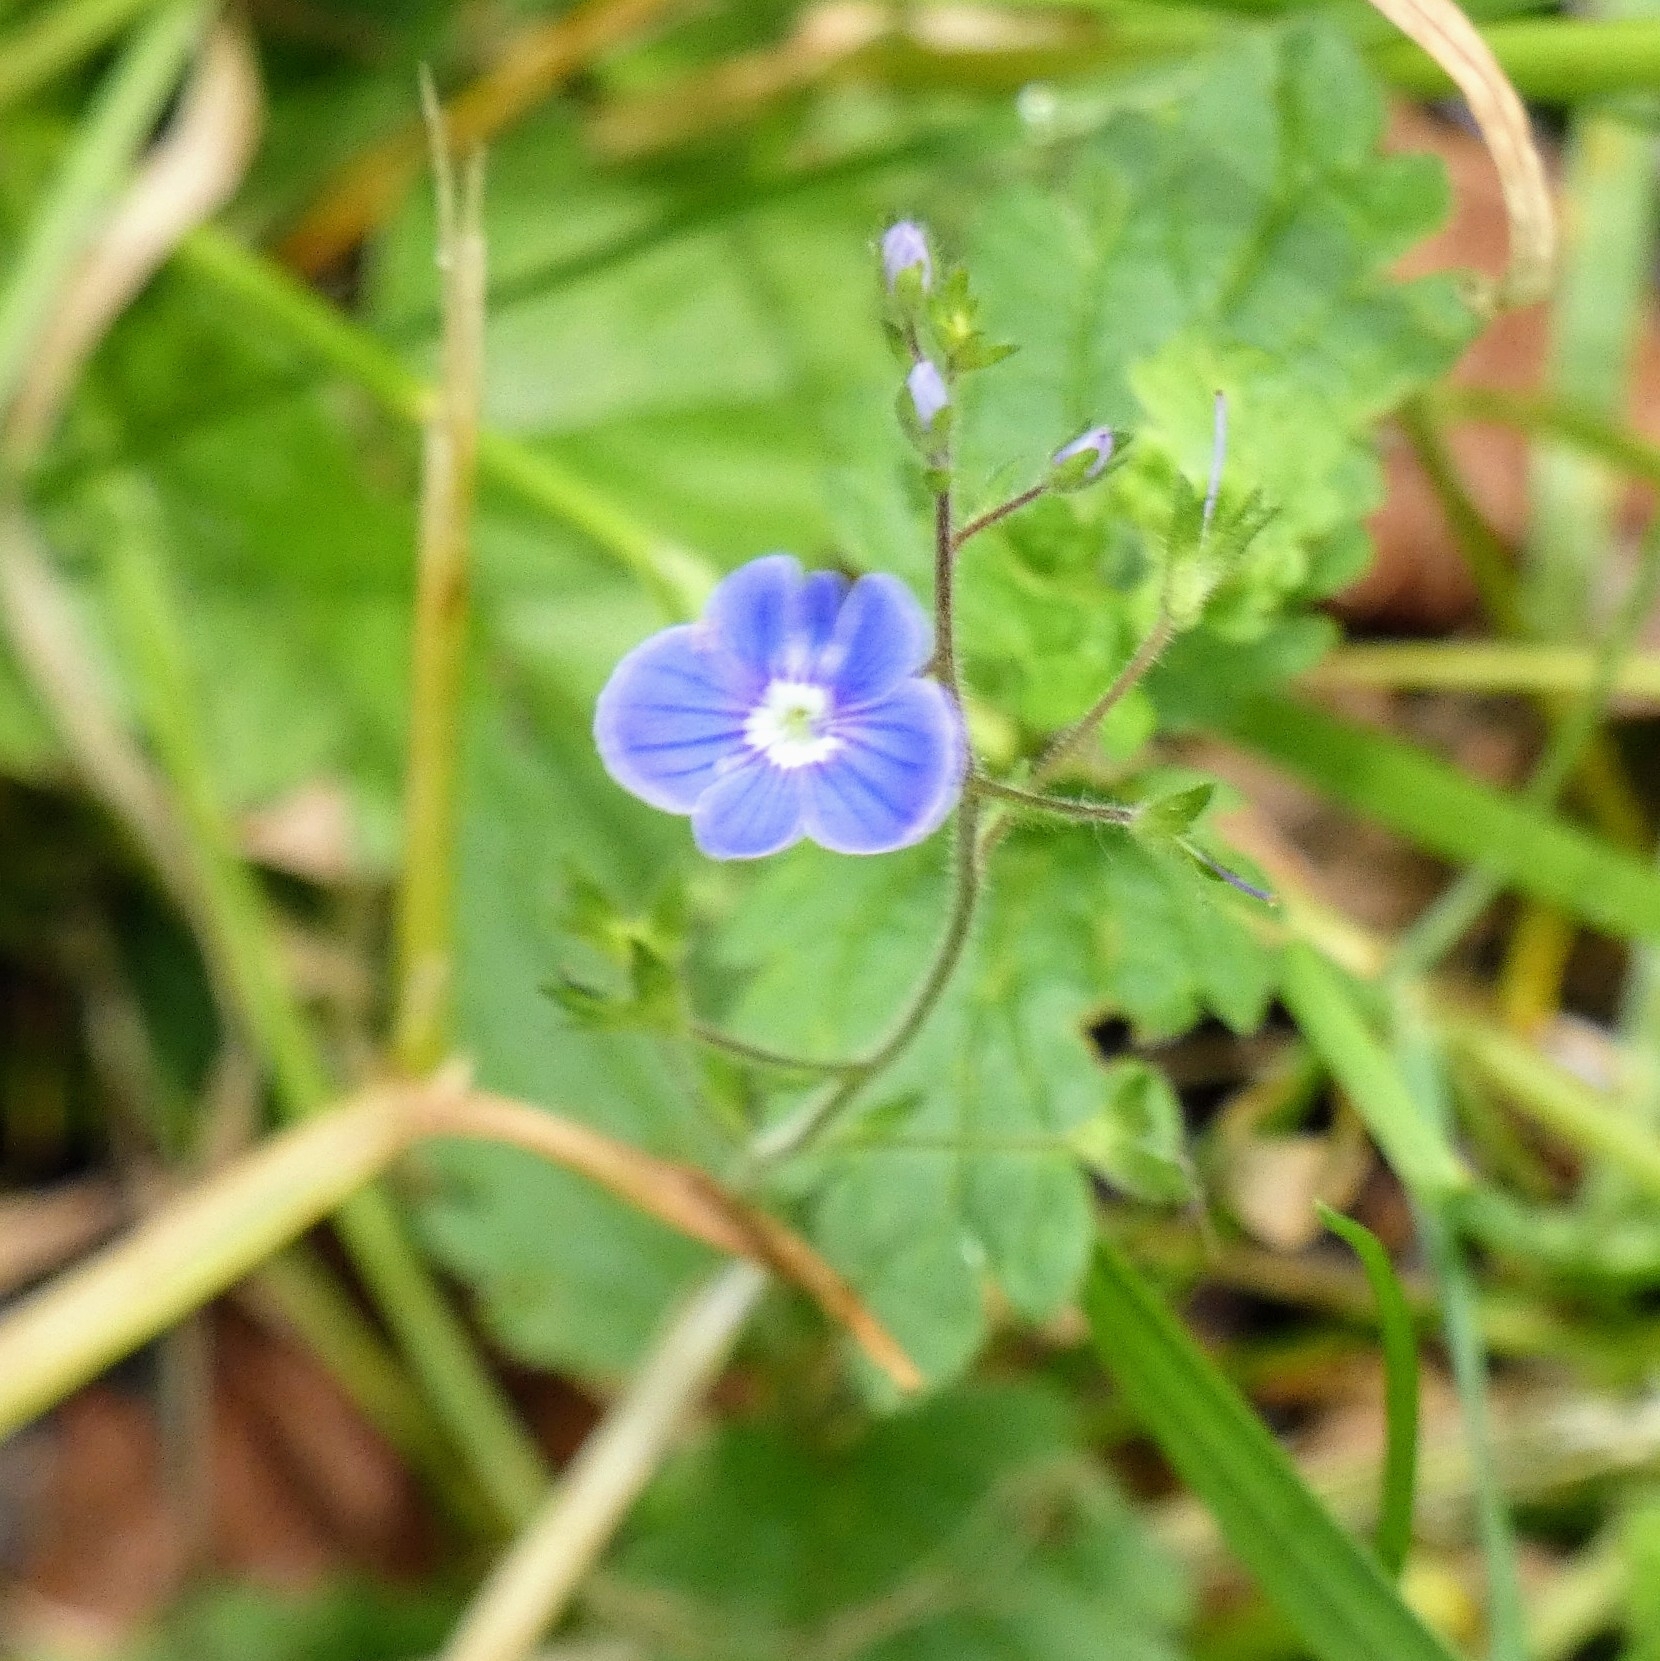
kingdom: Plantae
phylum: Tracheophyta
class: Magnoliopsida
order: Lamiales
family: Plantaginaceae
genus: Veronica
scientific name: Veronica chamaedrys
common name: Germander speedwell
